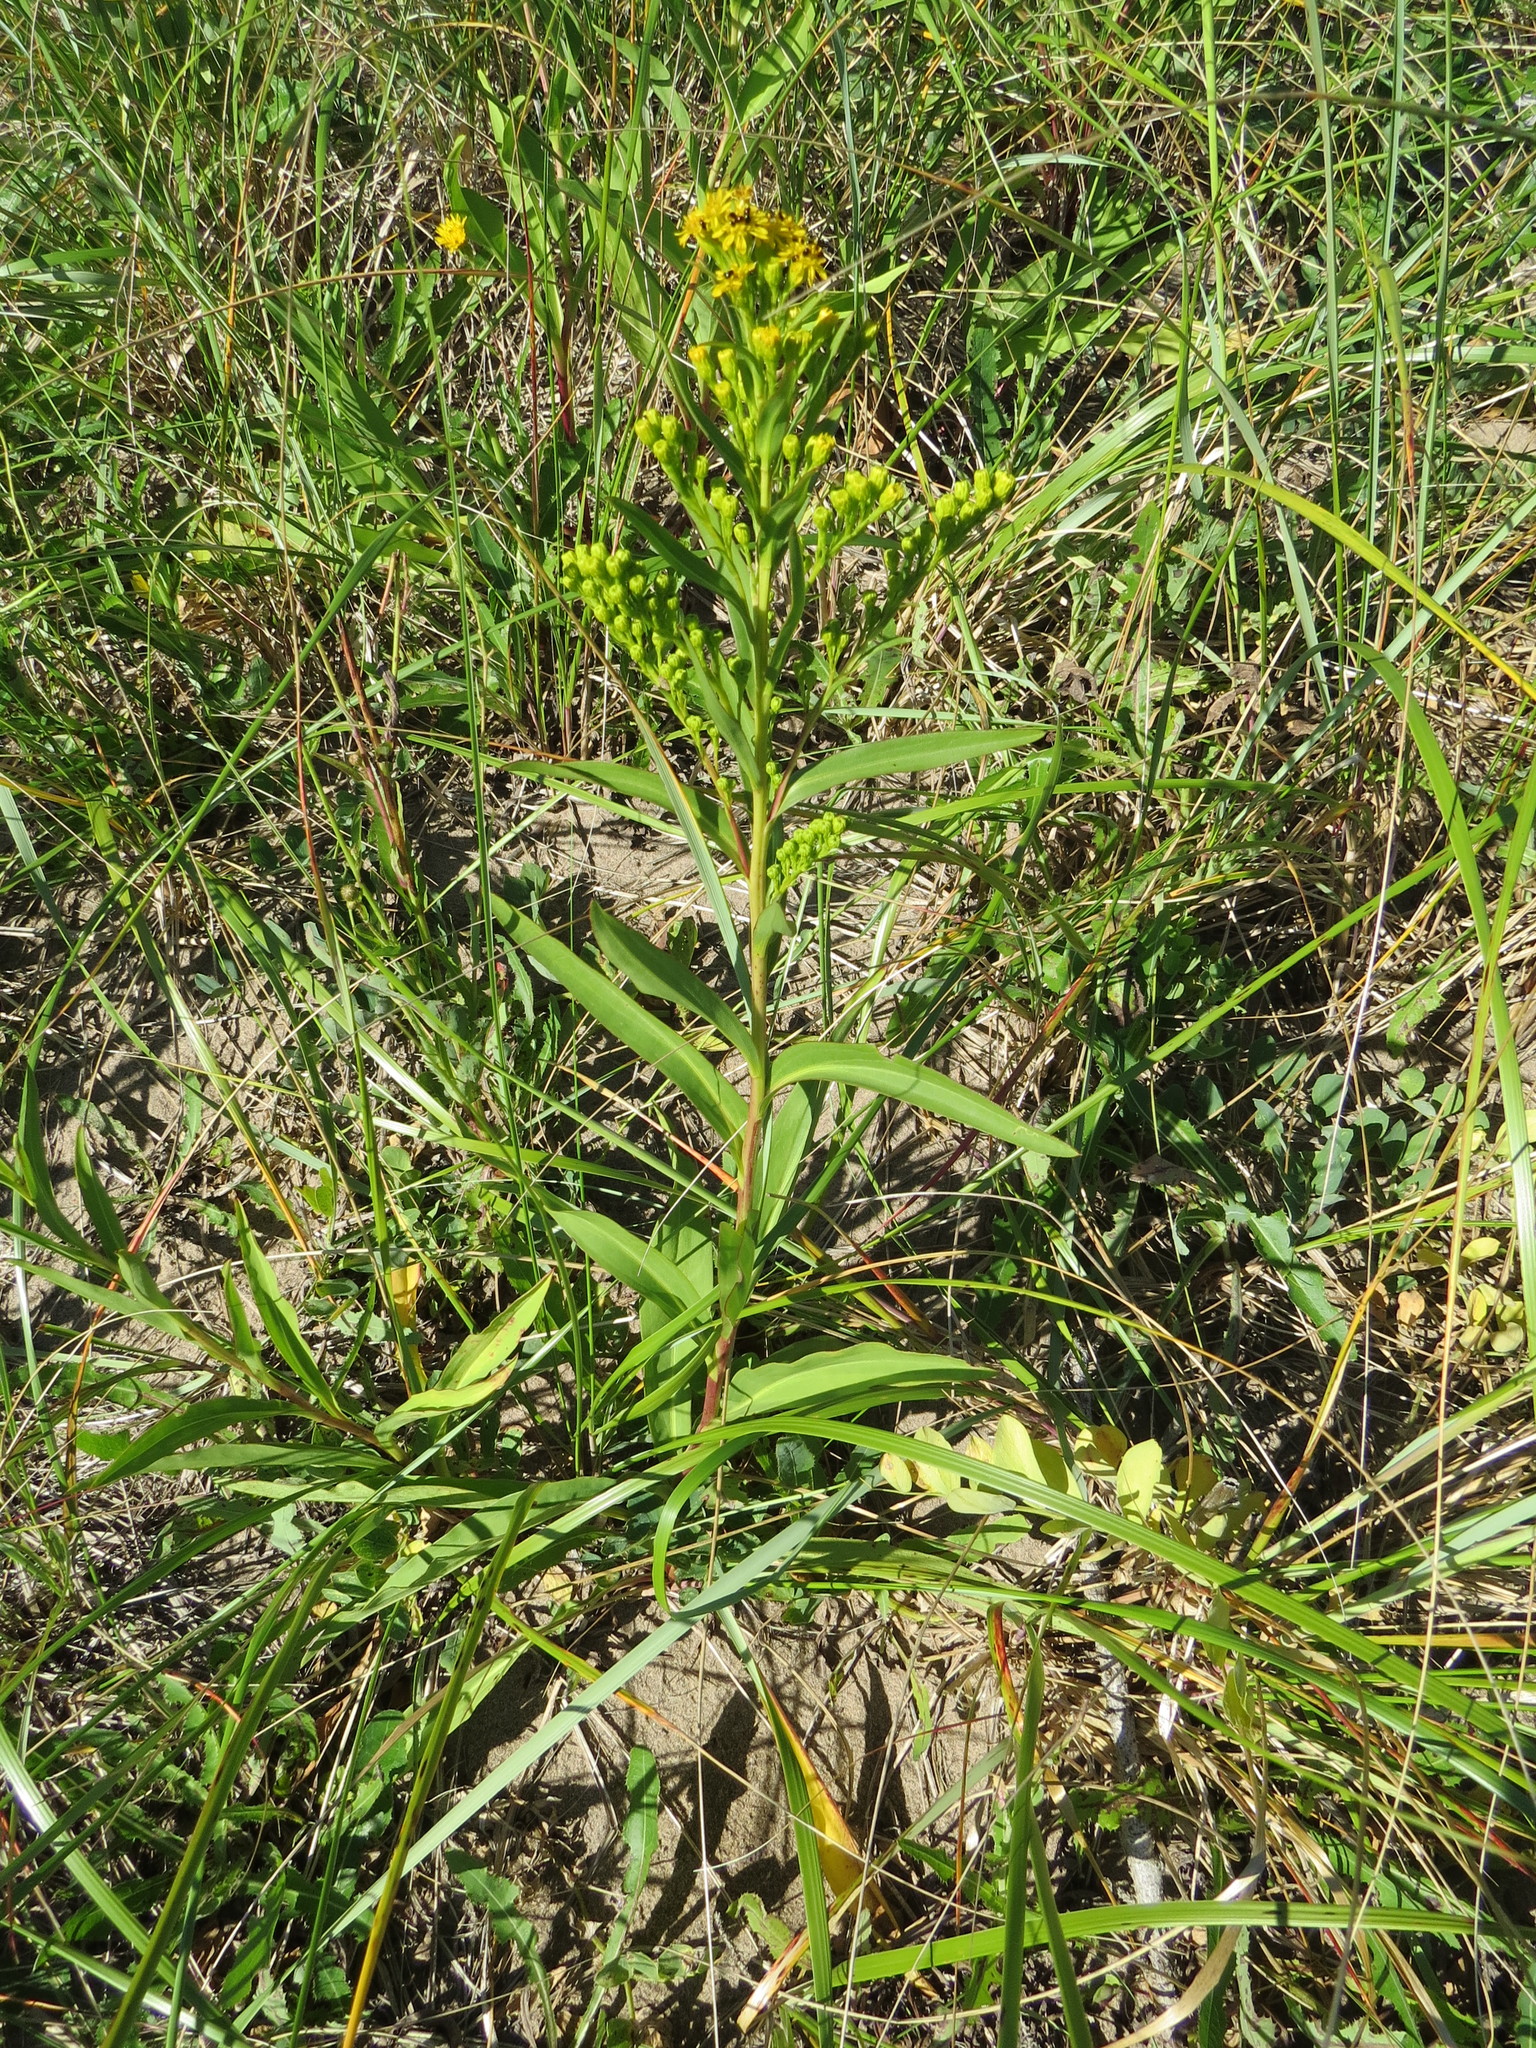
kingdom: Plantae
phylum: Tracheophyta
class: Magnoliopsida
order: Asterales
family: Asteraceae
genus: Solidago
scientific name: Solidago sempervirens
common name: Salt-marsh goldenrod
